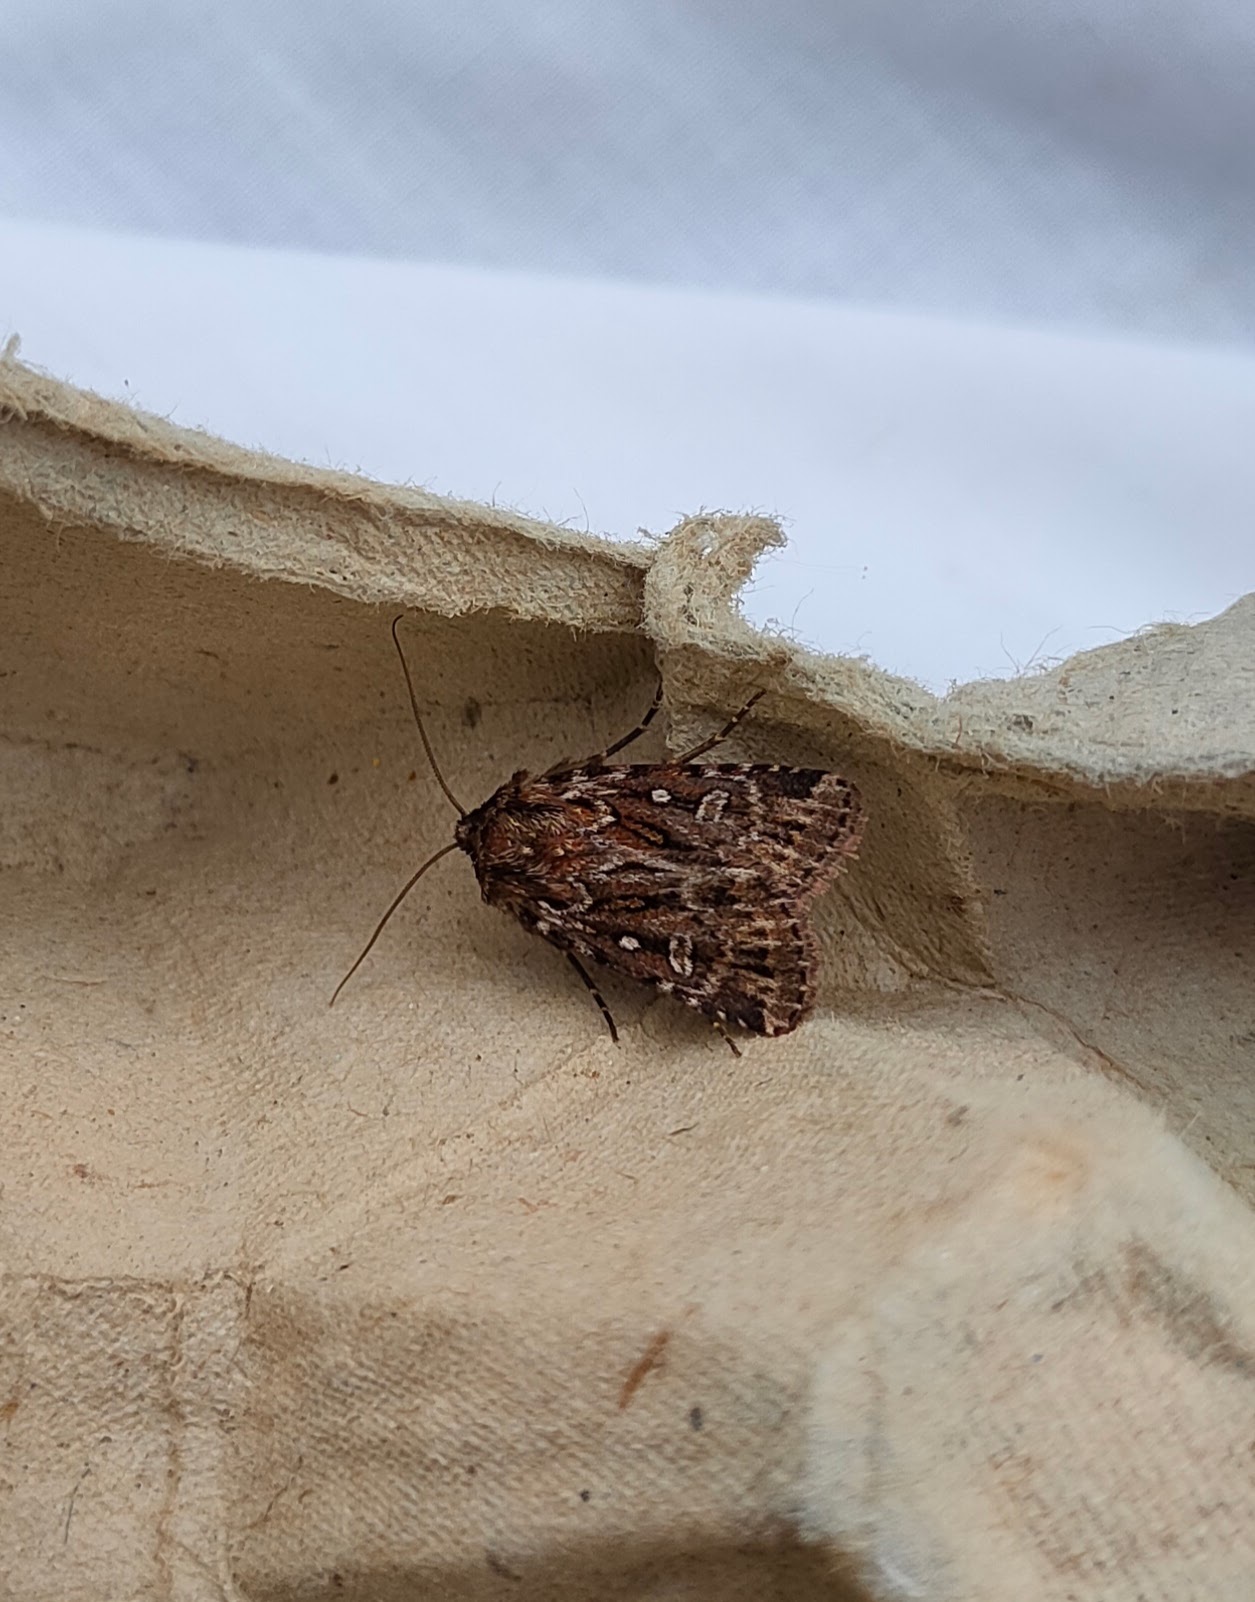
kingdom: Animalia
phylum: Arthropoda
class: Insecta
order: Lepidoptera
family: Noctuidae
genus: Lycophotia
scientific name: Lycophotia porphyrea
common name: True lover's knot
